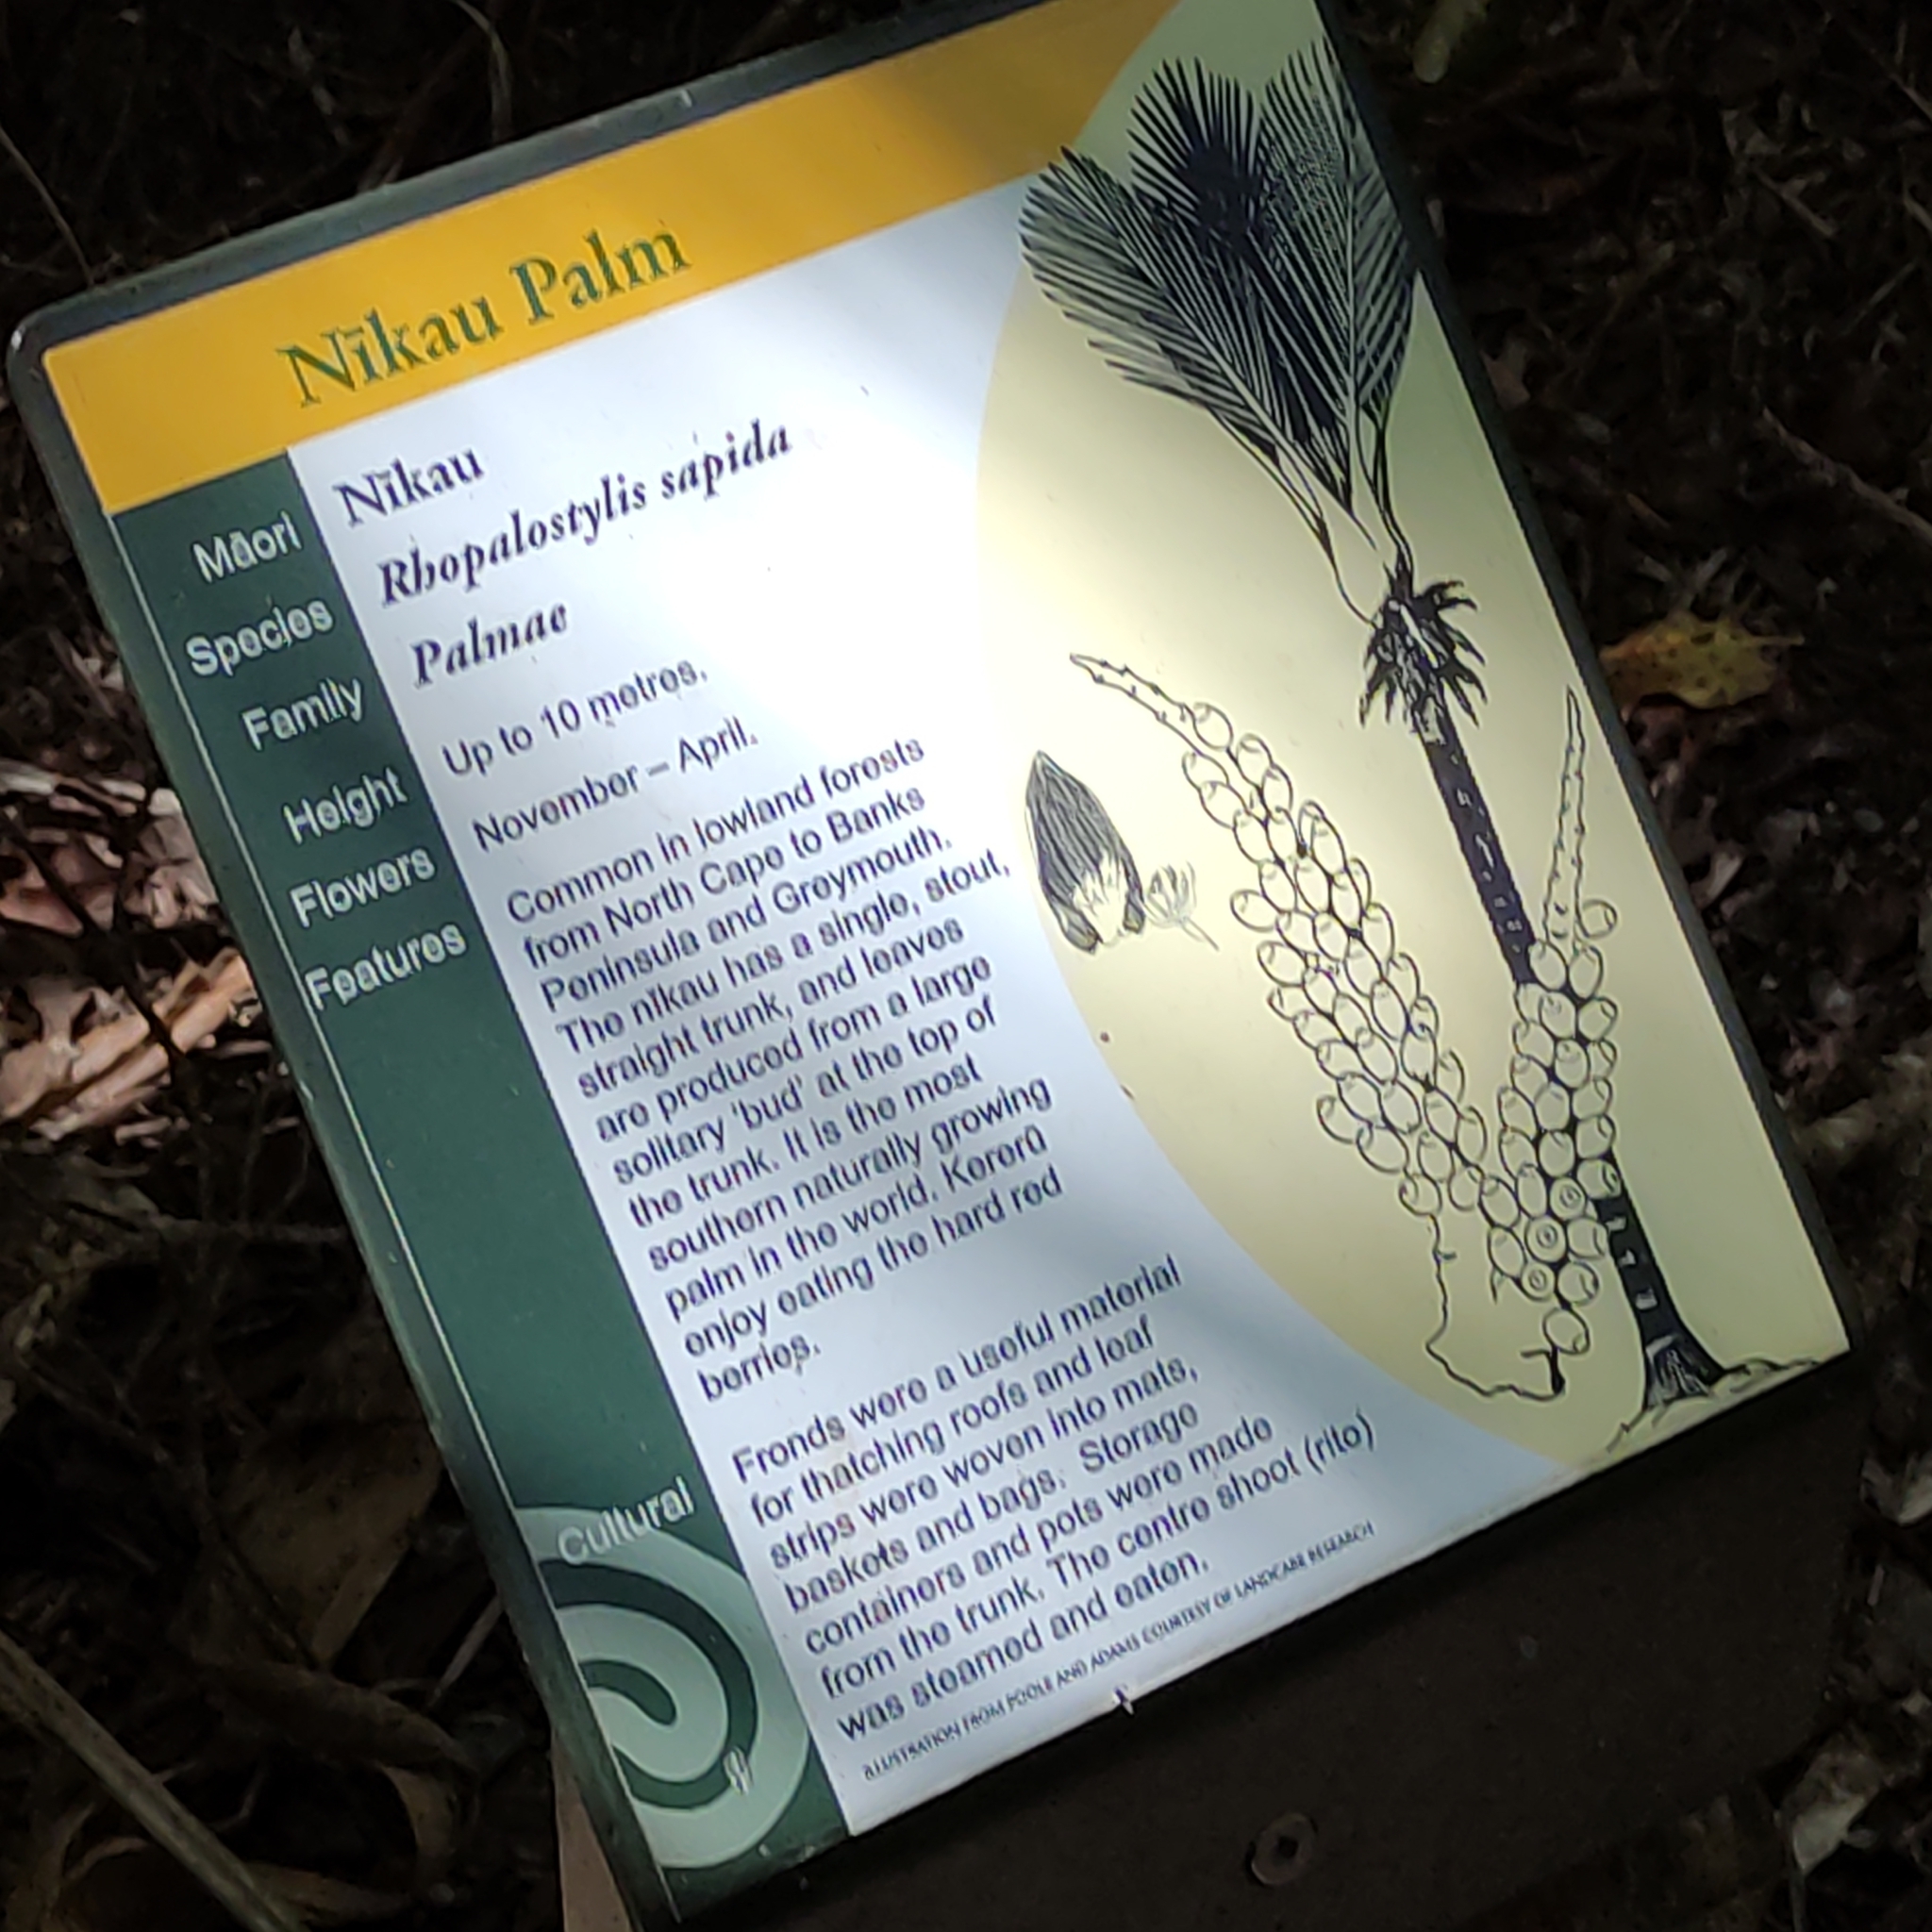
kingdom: Plantae
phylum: Tracheophyta
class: Liliopsida
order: Arecales
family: Arecaceae
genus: Rhopalostylis
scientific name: Rhopalostylis sapida
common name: Feather-duster palm
